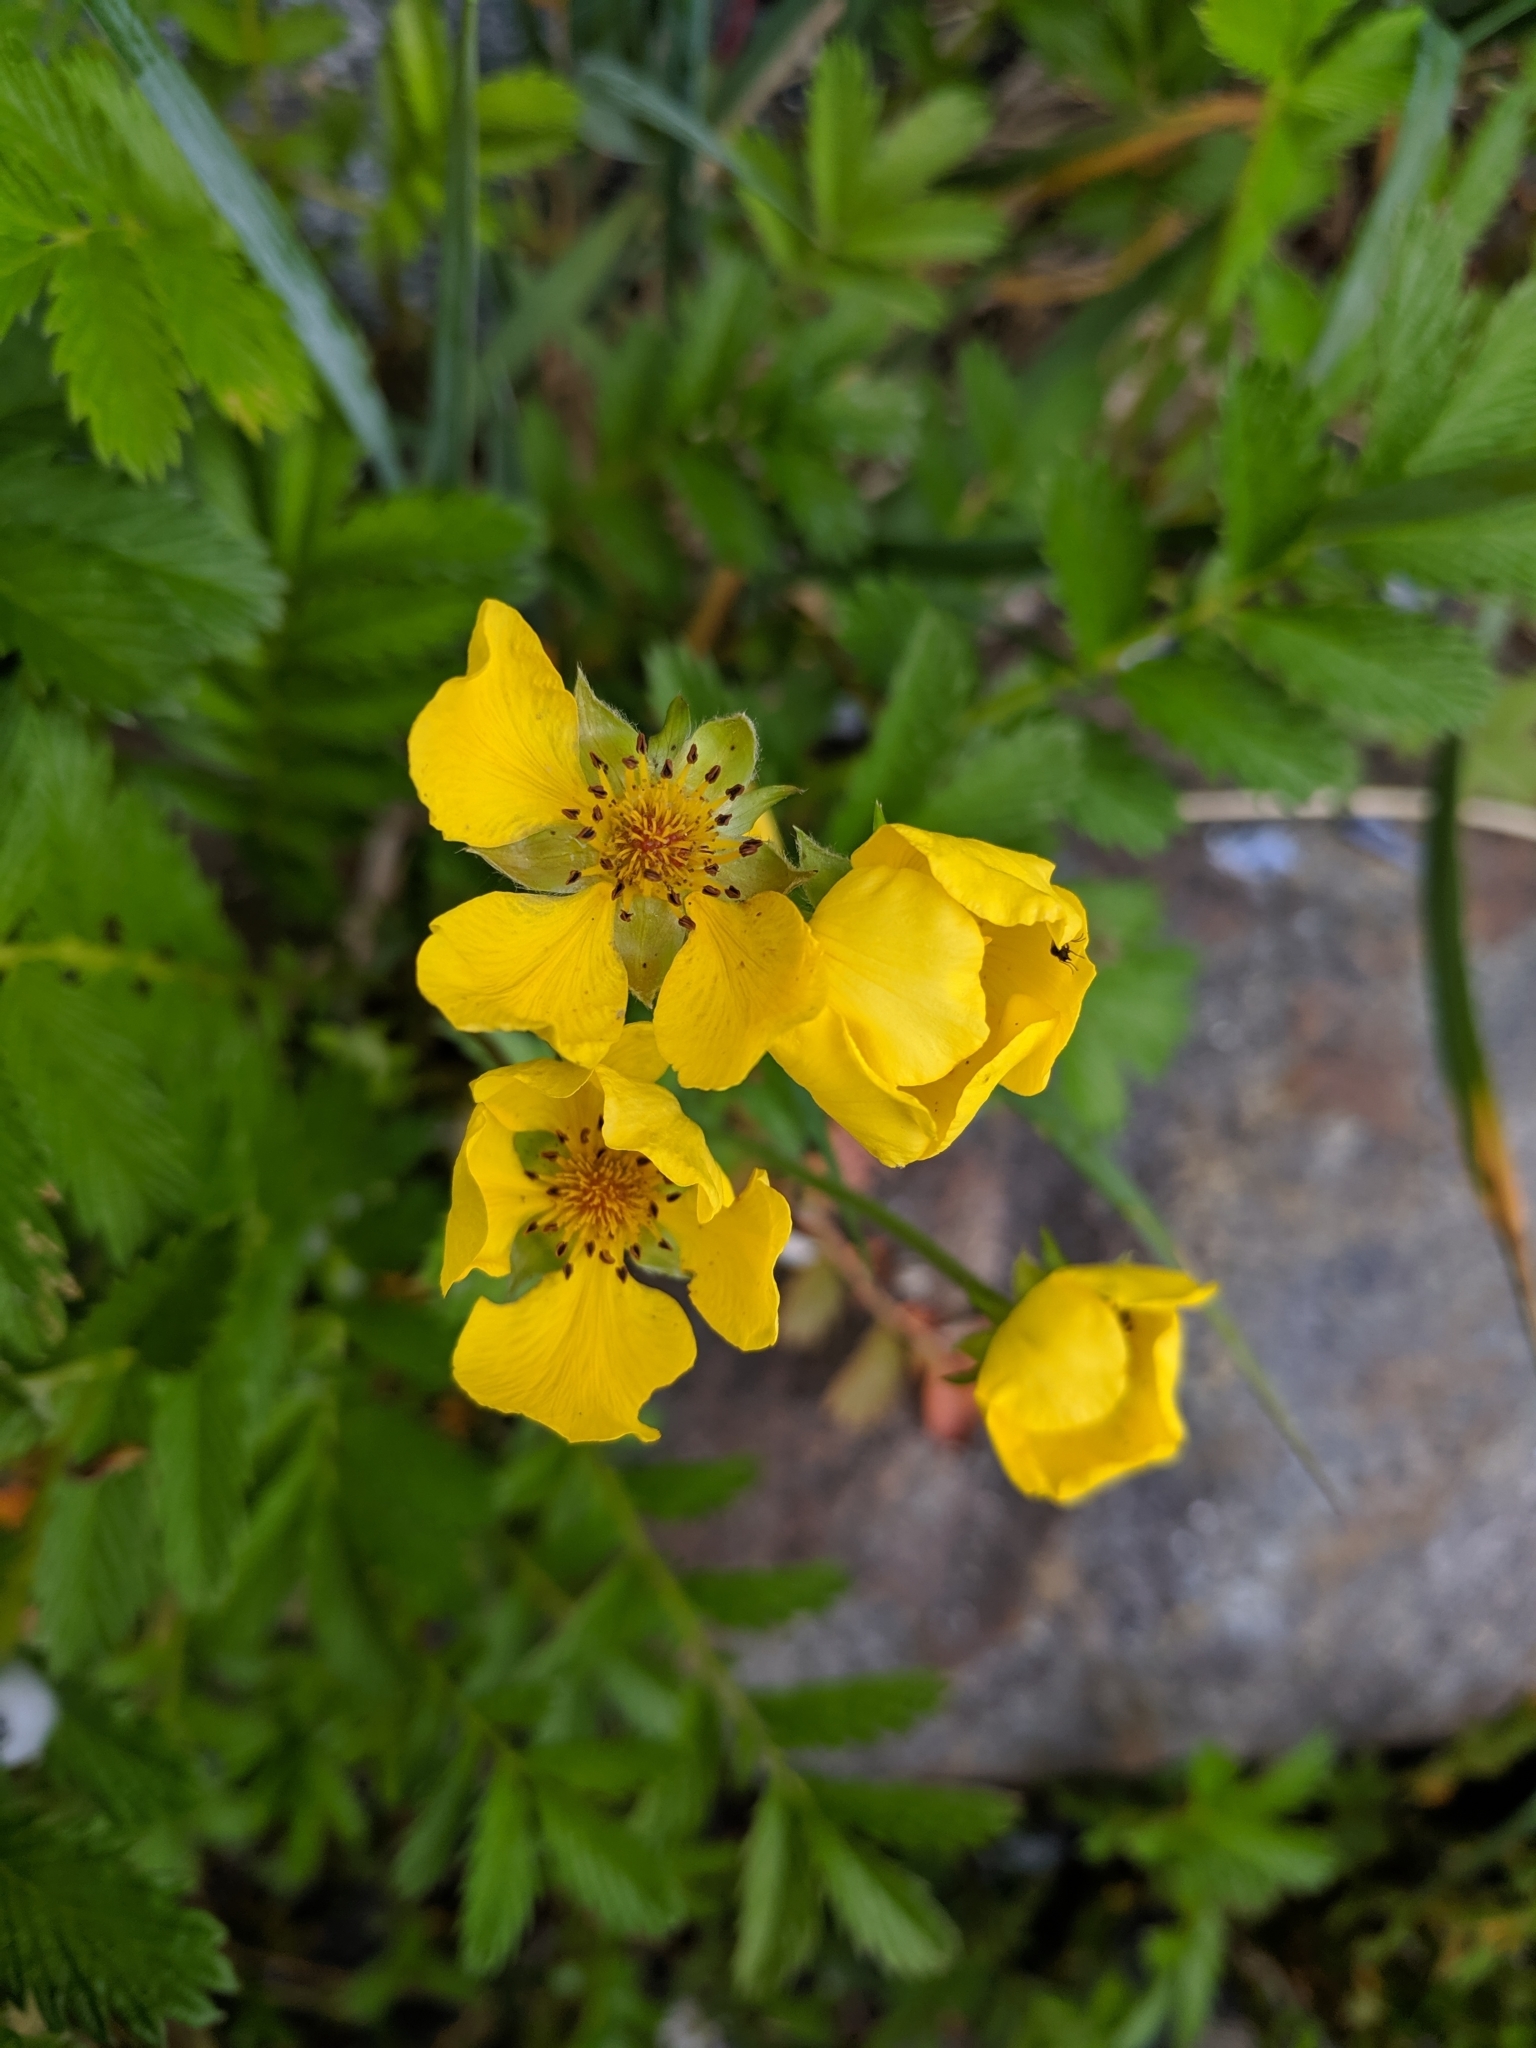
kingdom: Plantae
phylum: Tracheophyta
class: Magnoliopsida
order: Rosales
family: Rosaceae
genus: Argentina
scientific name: Argentina anserina
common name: Common silverweed
